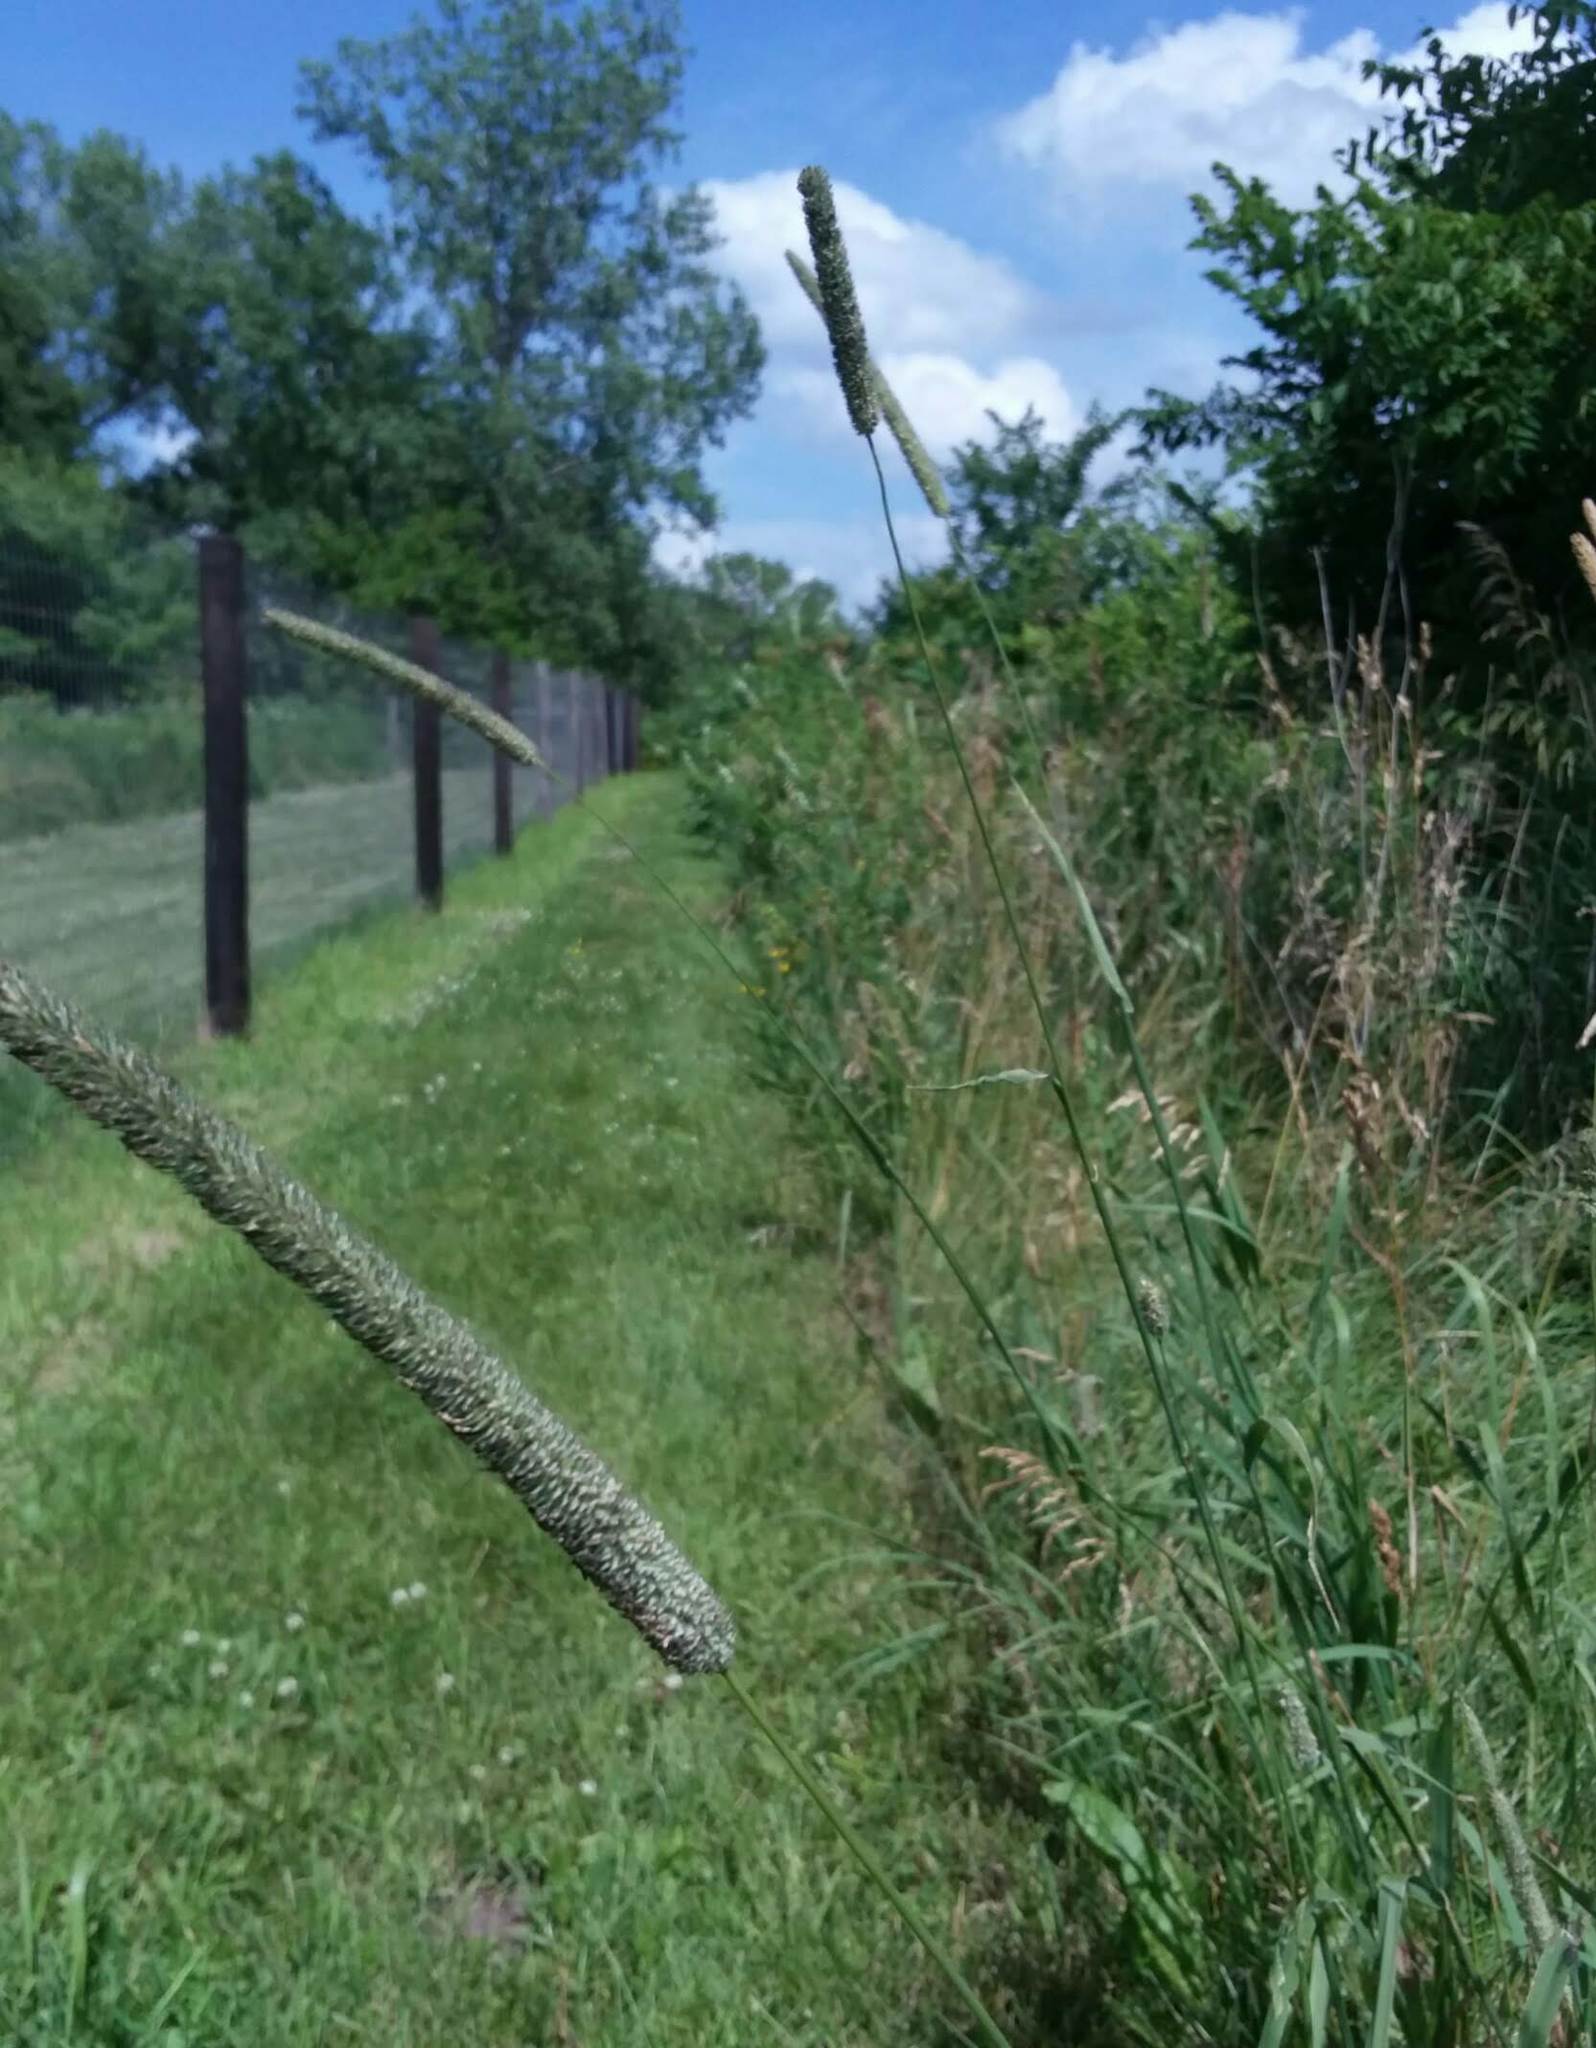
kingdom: Plantae
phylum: Tracheophyta
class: Liliopsida
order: Poales
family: Poaceae
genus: Phleum
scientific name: Phleum pratense
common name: Timothy grass
